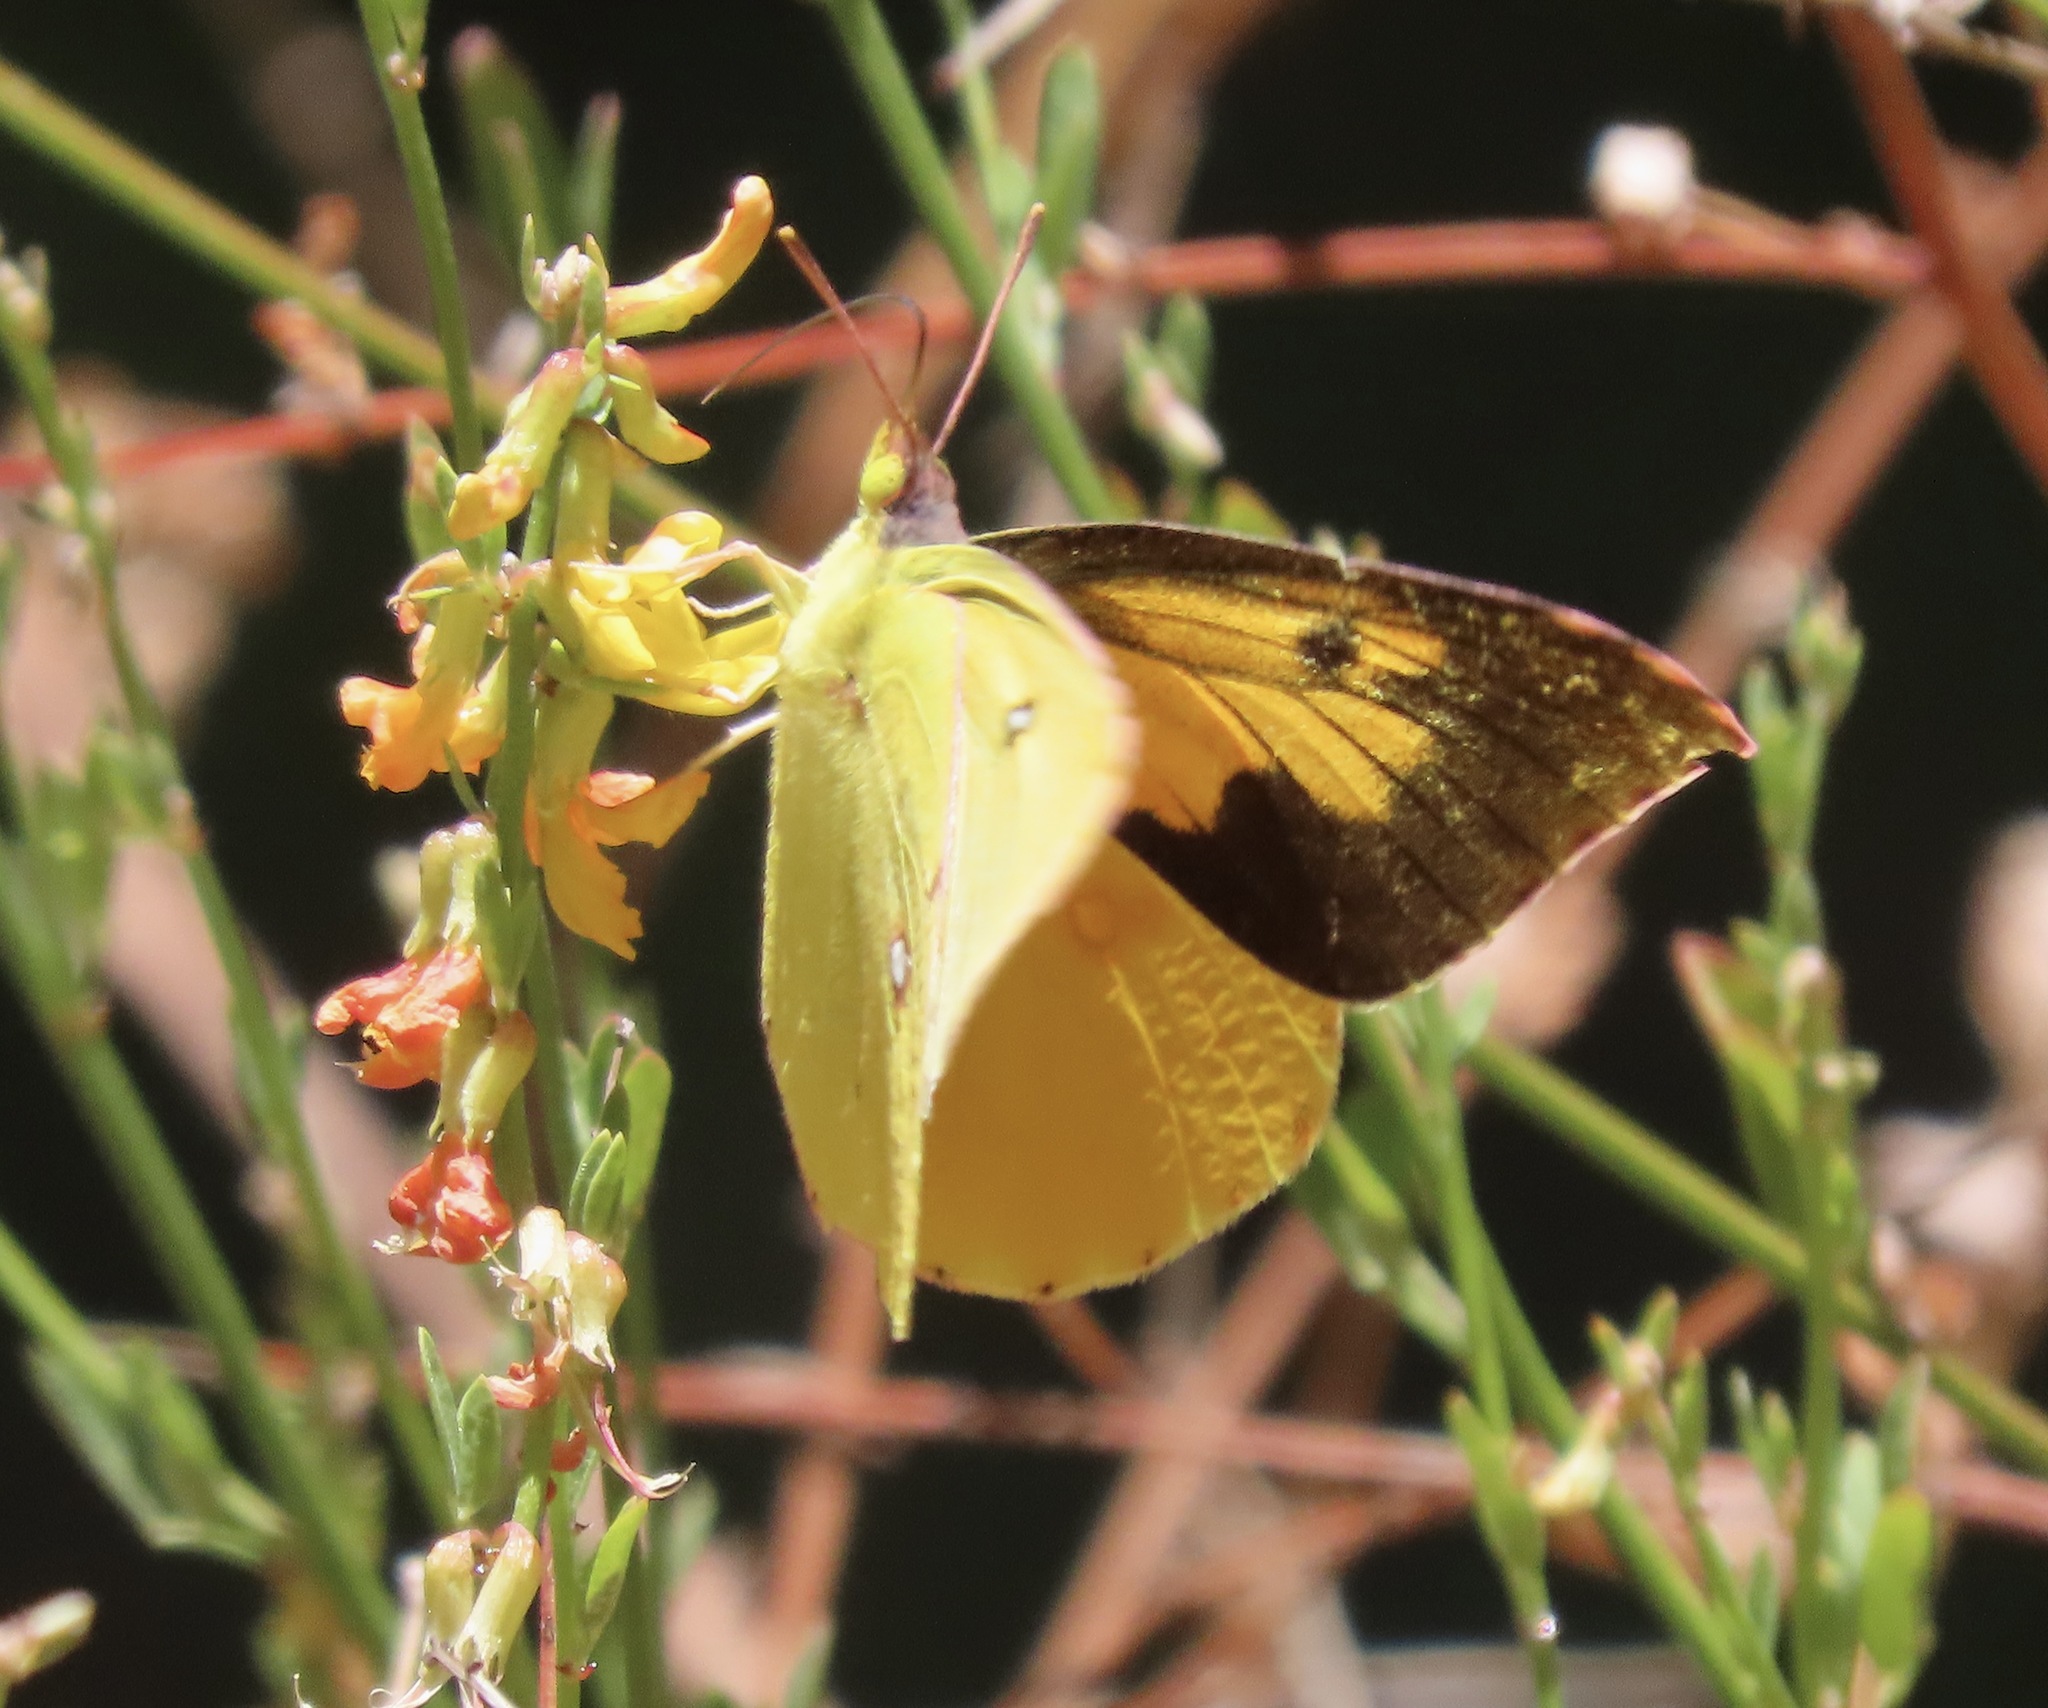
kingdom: Animalia
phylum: Arthropoda
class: Insecta
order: Lepidoptera
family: Pieridae
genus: Zerene
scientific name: Zerene eurydice
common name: California dogface
